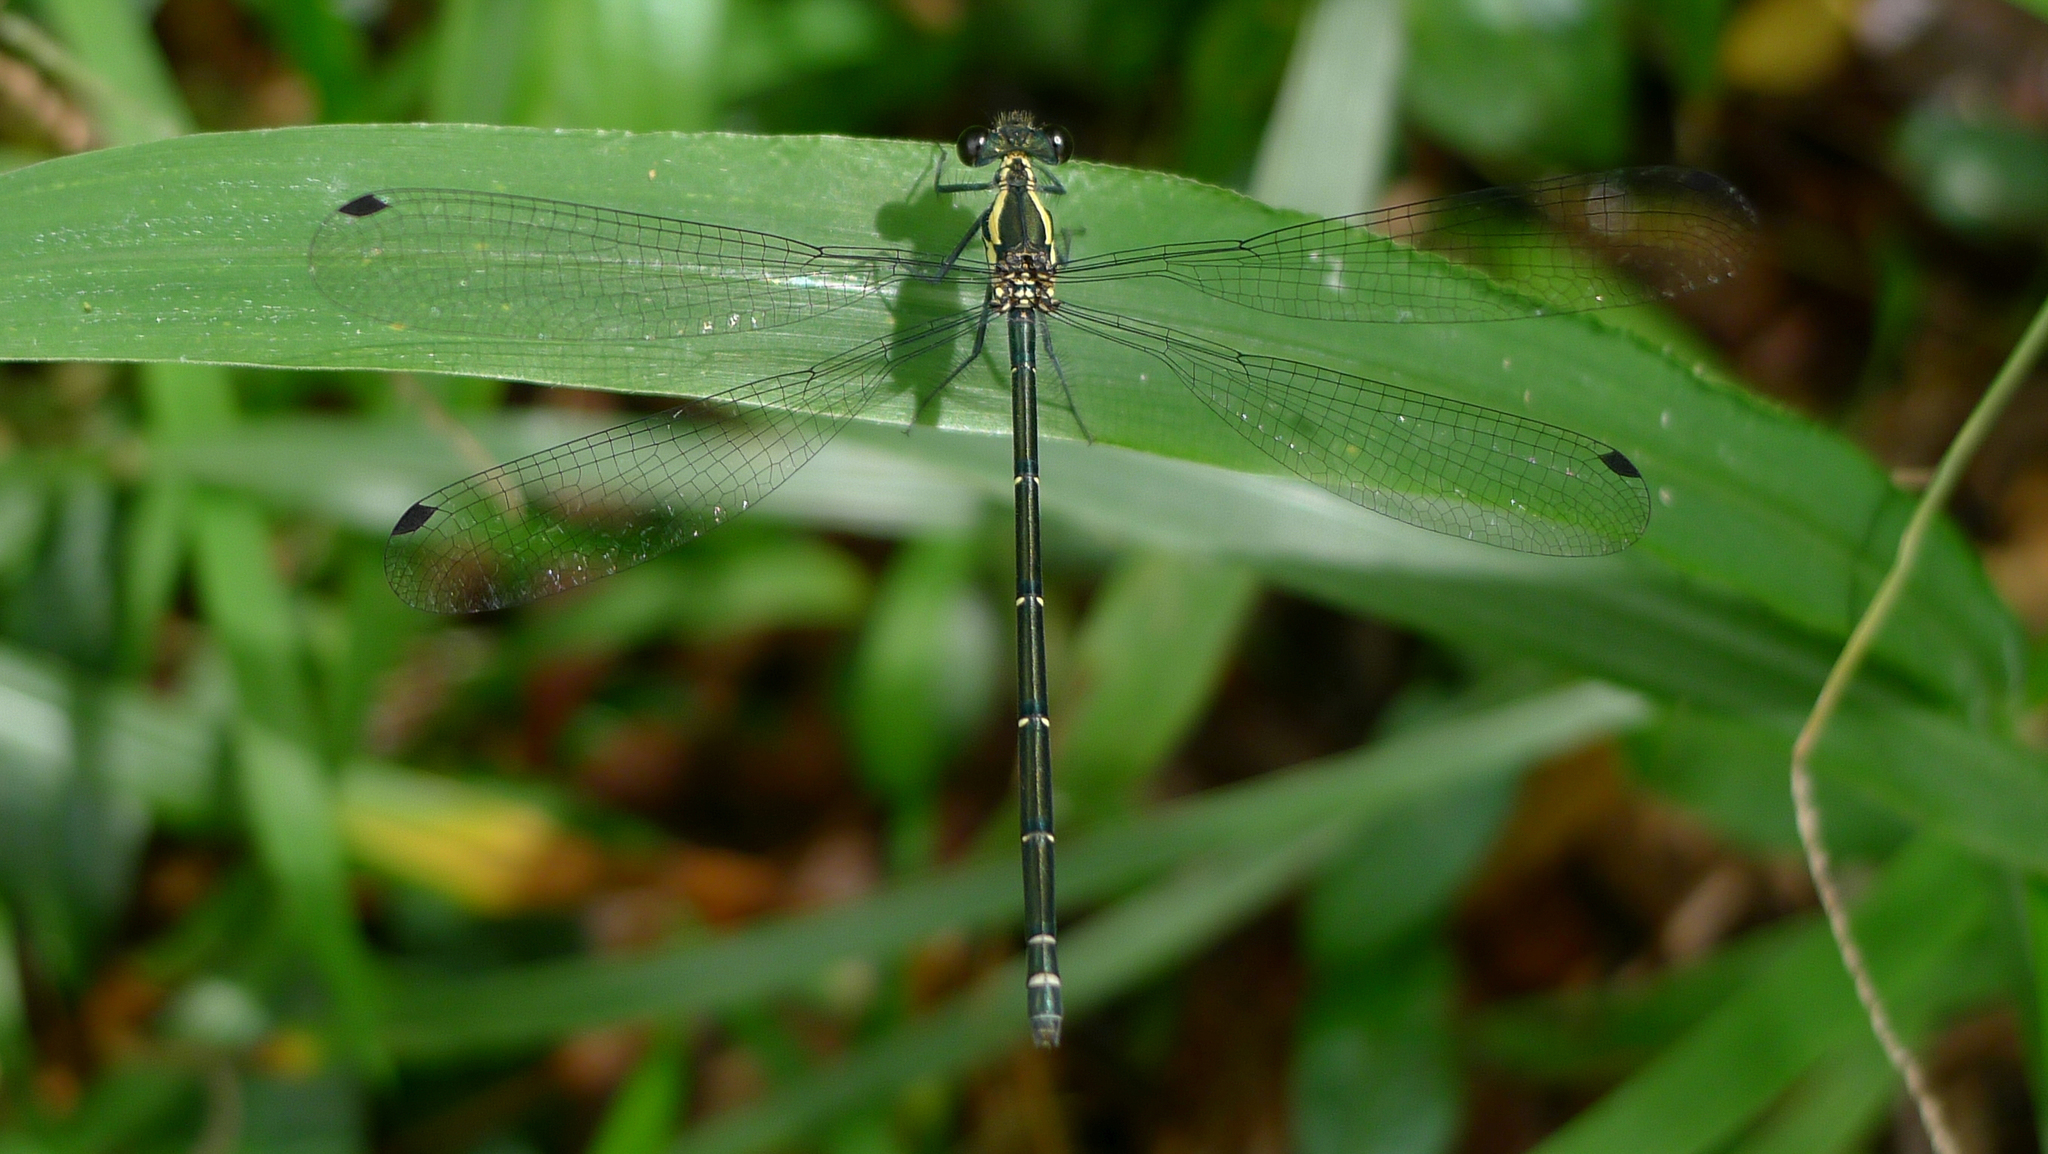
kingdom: Animalia
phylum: Arthropoda
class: Insecta
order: Odonata
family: Argiolestidae
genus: Austroargiolestes
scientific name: Austroargiolestes icteromelas
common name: Common flatwing
